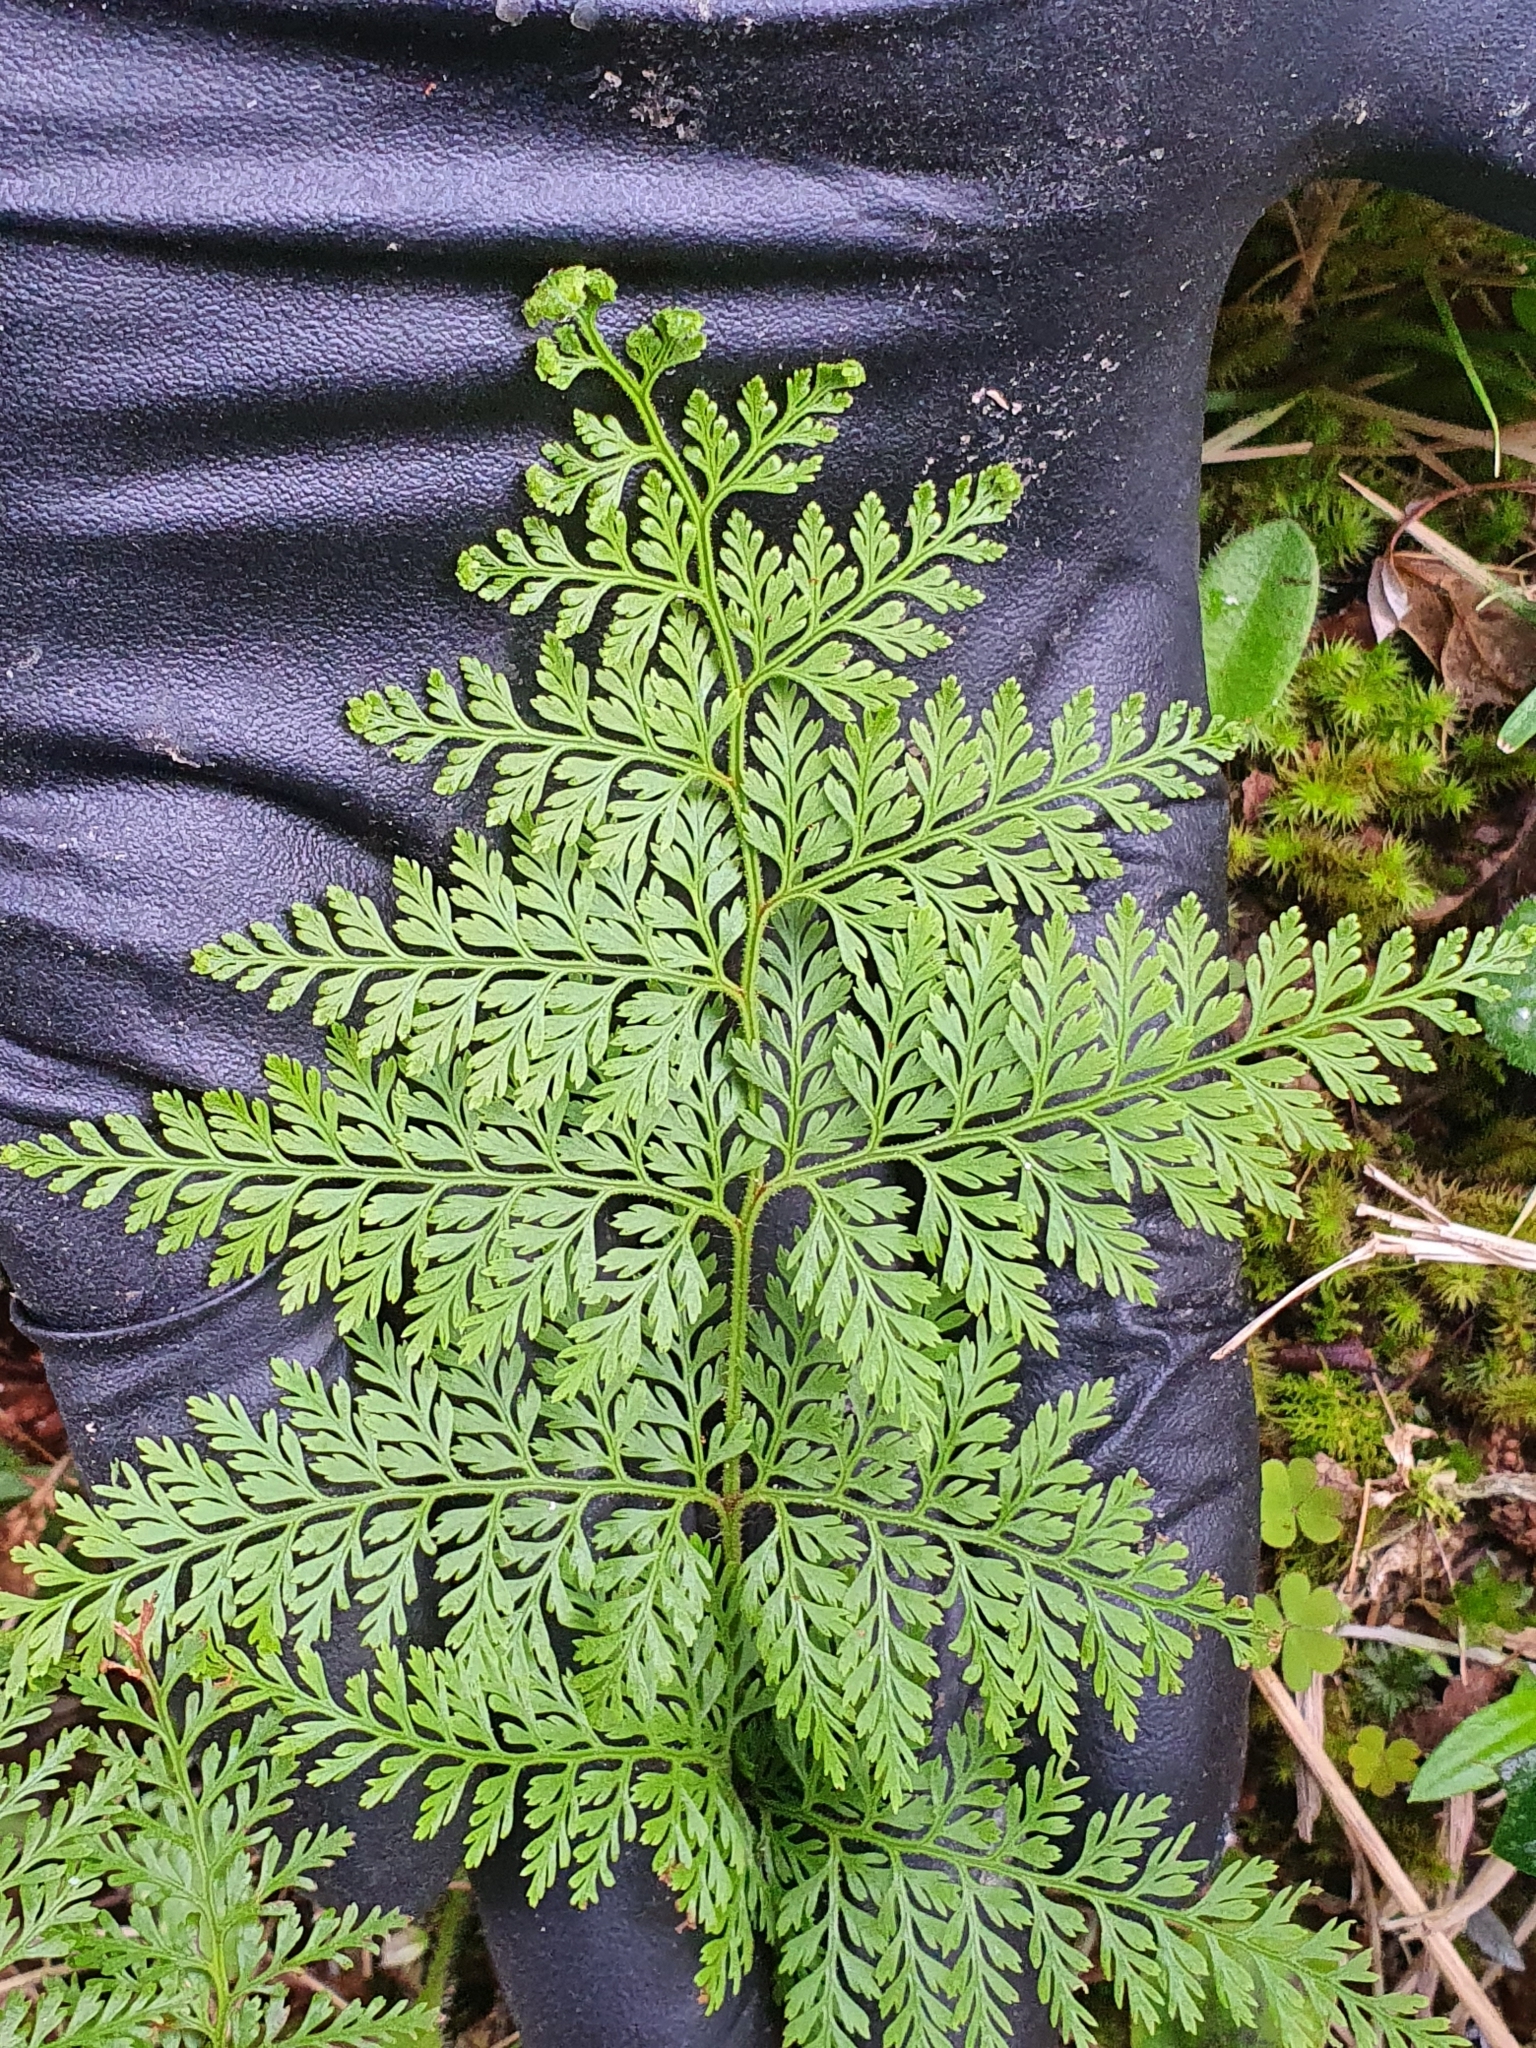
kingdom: Plantae
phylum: Tracheophyta
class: Polypodiopsida
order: Polypodiales
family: Dennstaedtiaceae
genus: Paesia
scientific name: Paesia scaberula
